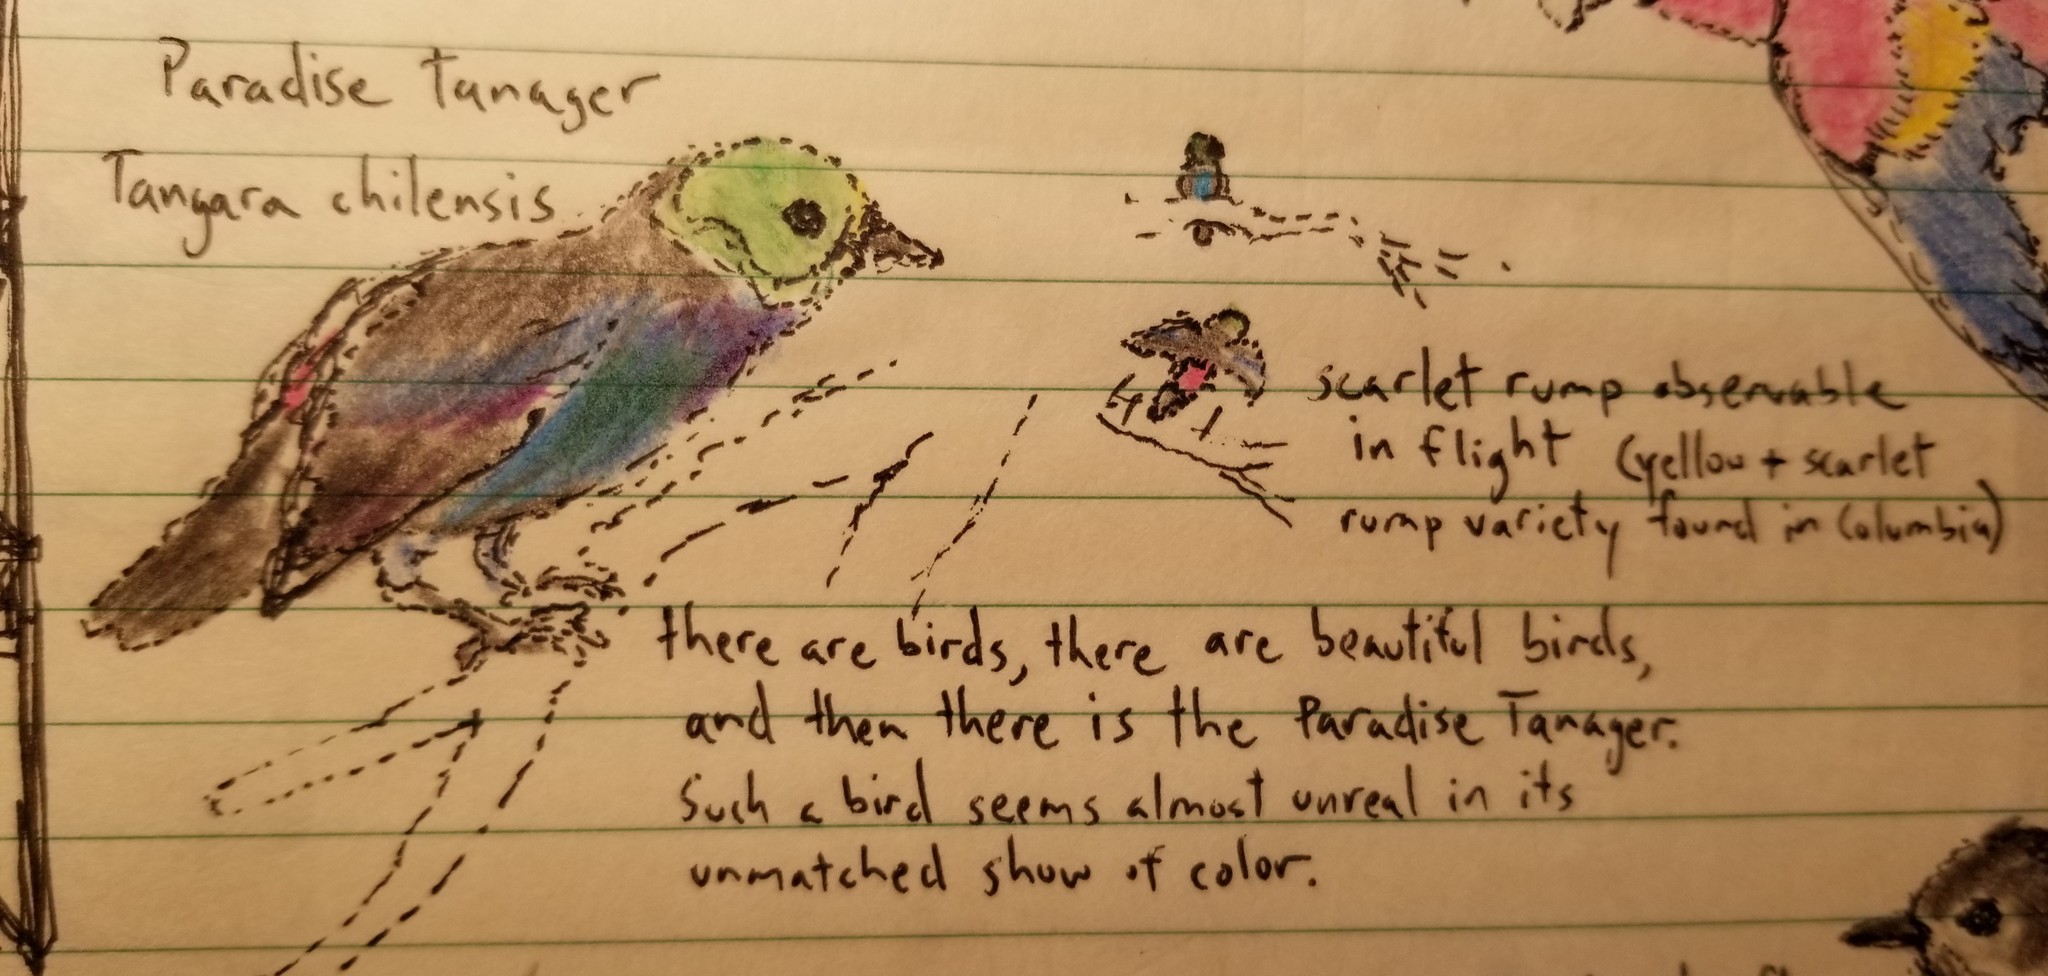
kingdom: Animalia
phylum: Chordata
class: Aves
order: Passeriformes
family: Thraupidae
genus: Tangara
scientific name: Tangara chilensis
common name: Paradise tanager
